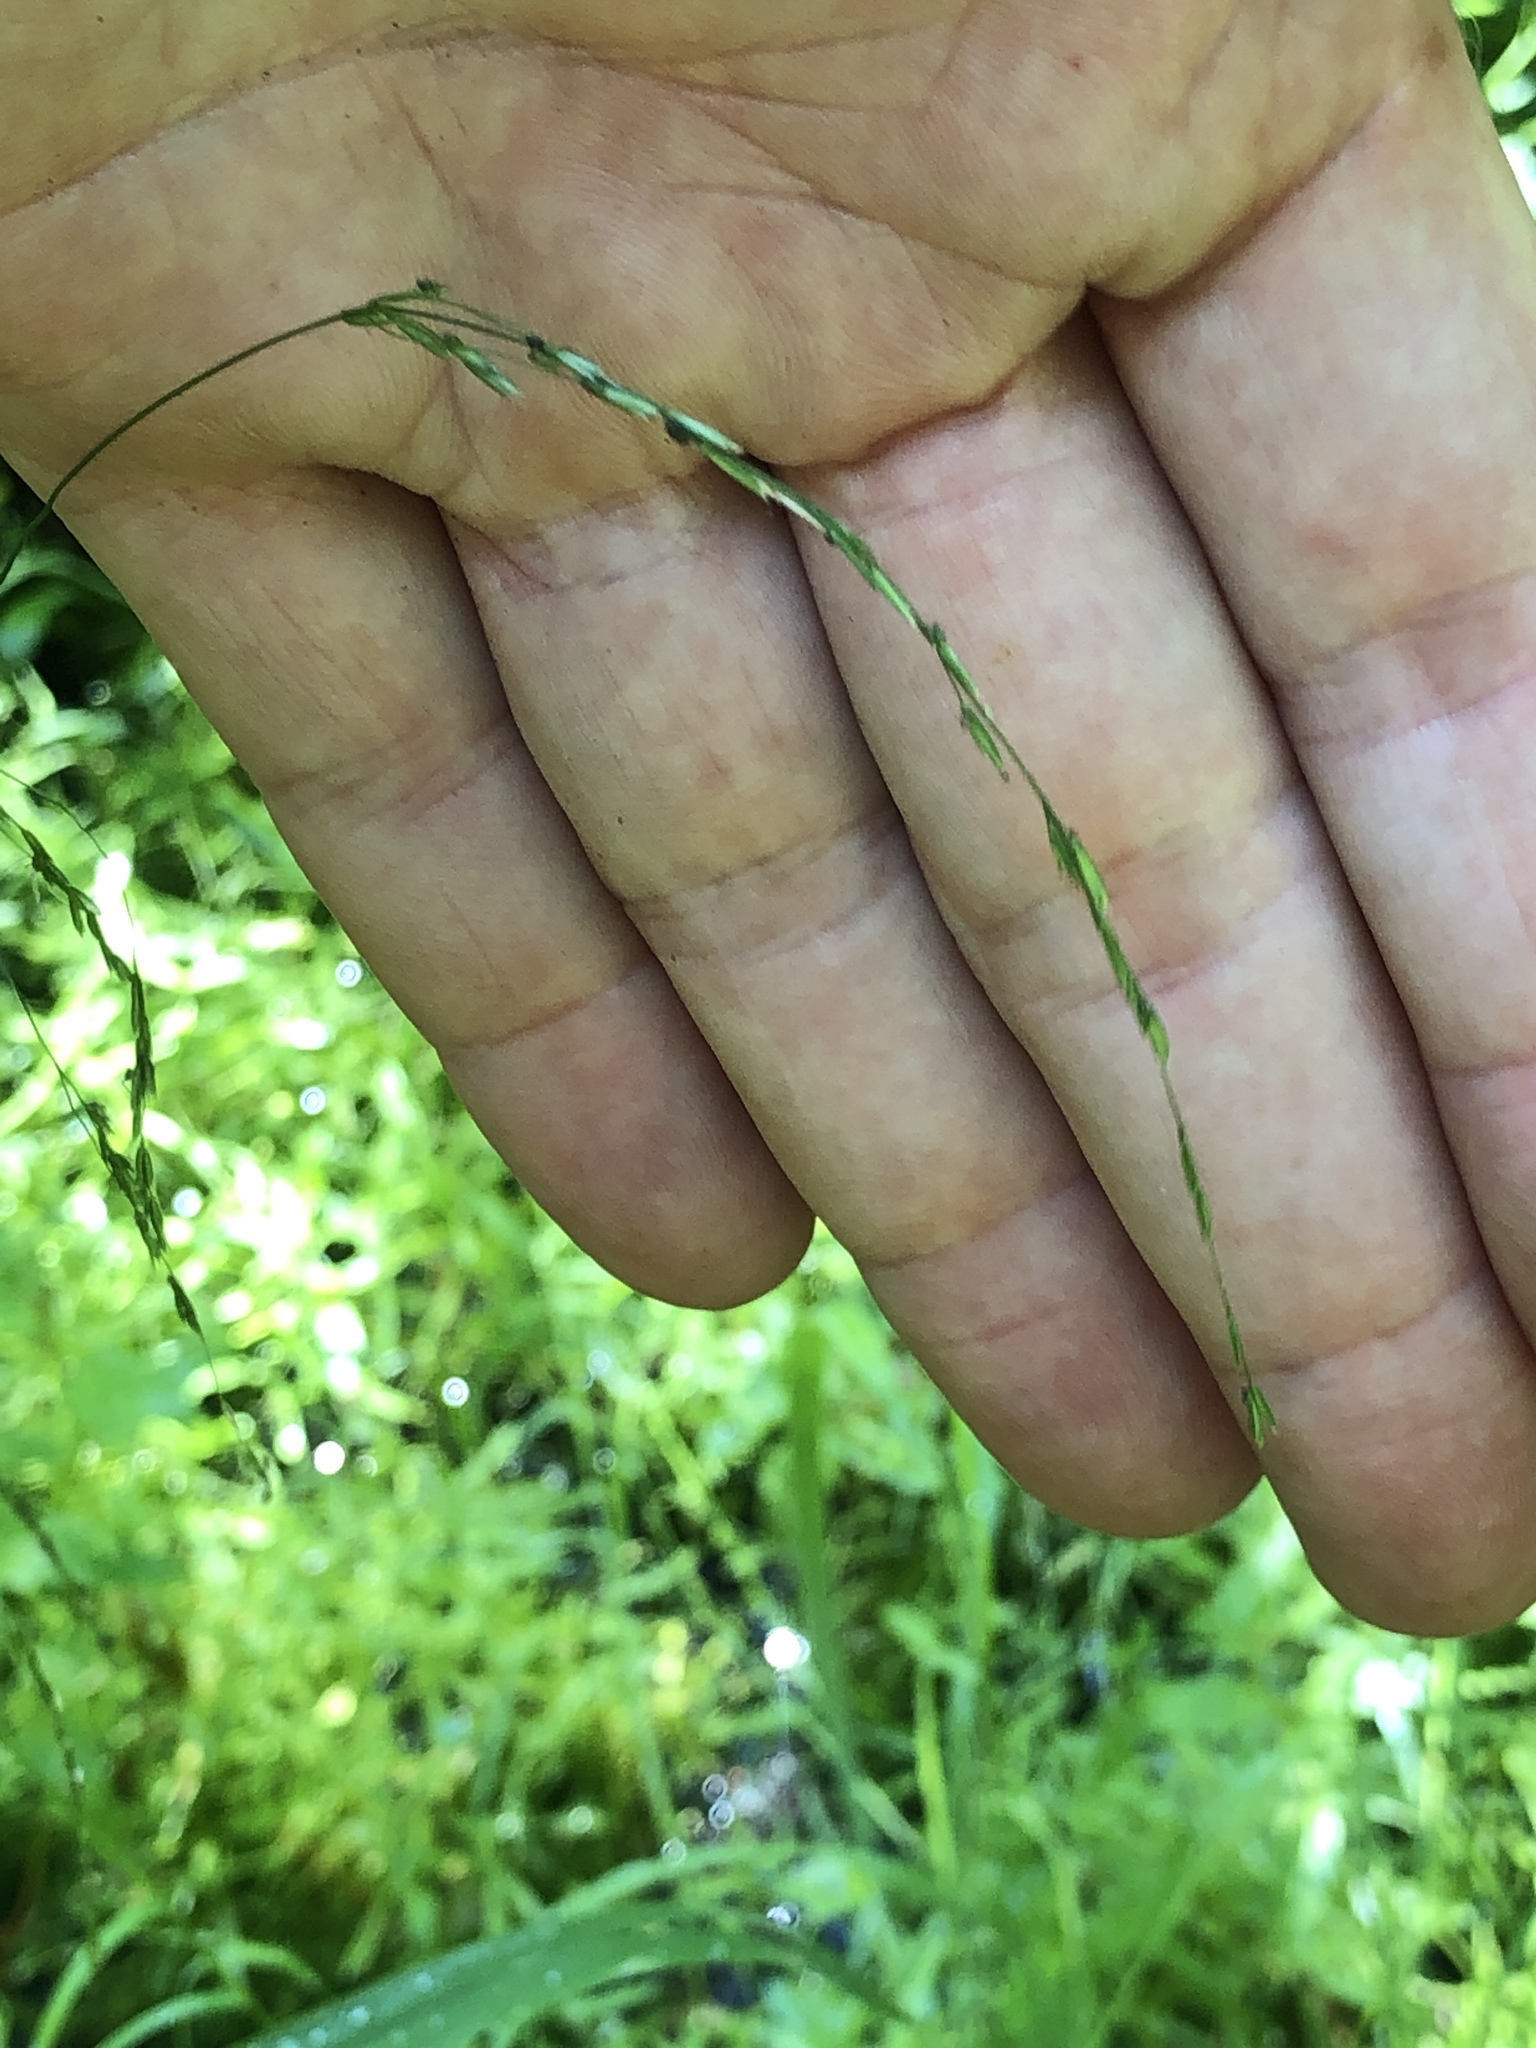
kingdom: Plantae
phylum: Tracheophyta
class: Liliopsida
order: Poales
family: Poaceae
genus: Cinna
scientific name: Cinna latifolia
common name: Drooping woodreed
